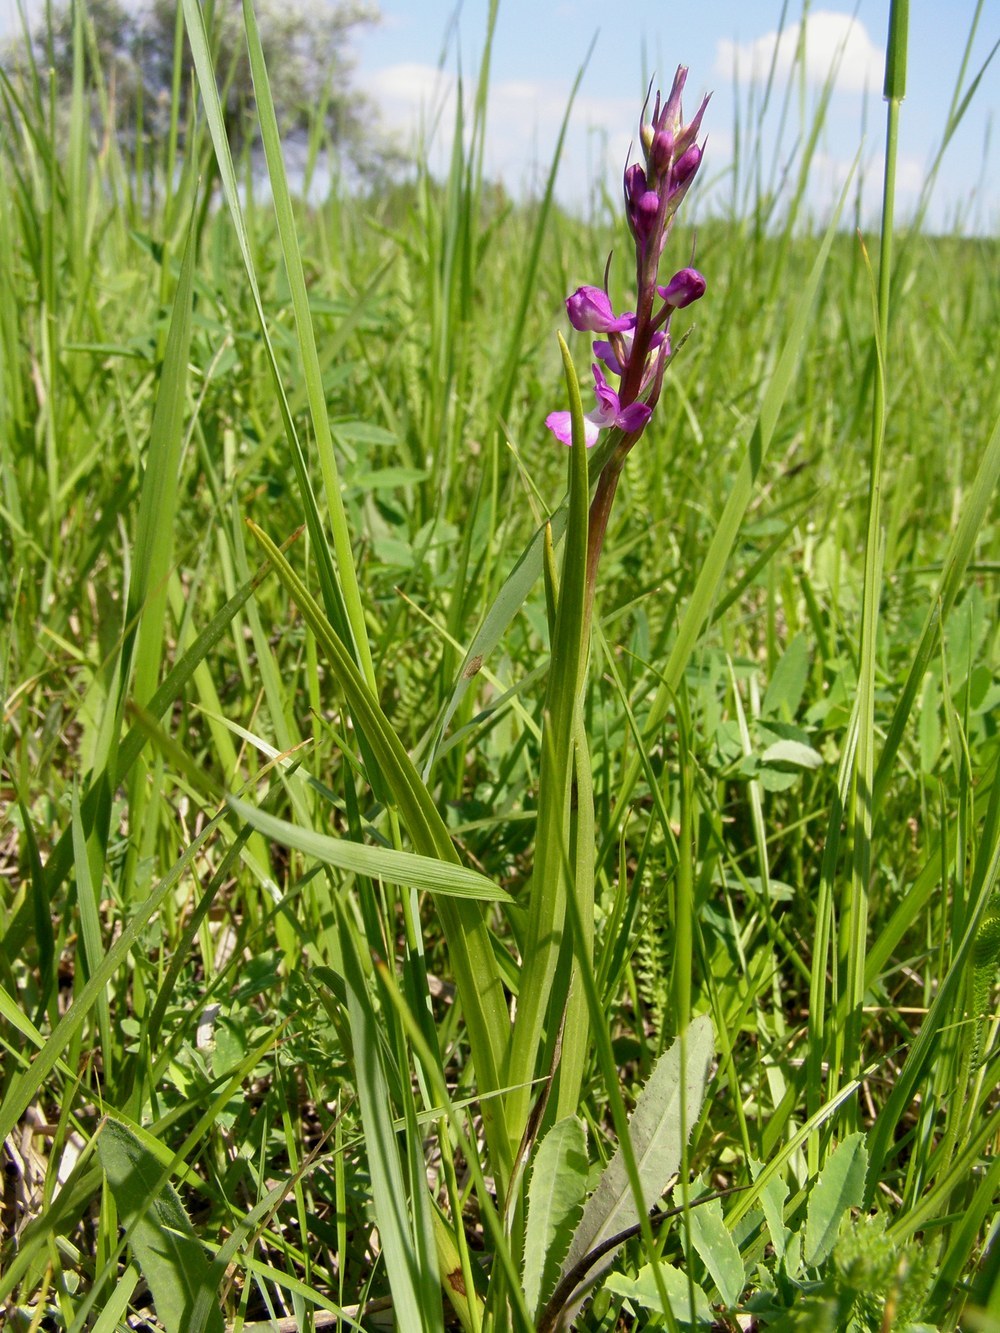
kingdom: Plantae
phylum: Tracheophyta
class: Liliopsida
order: Asparagales
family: Orchidaceae
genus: Anacamptis
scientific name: Anacamptis palustris
